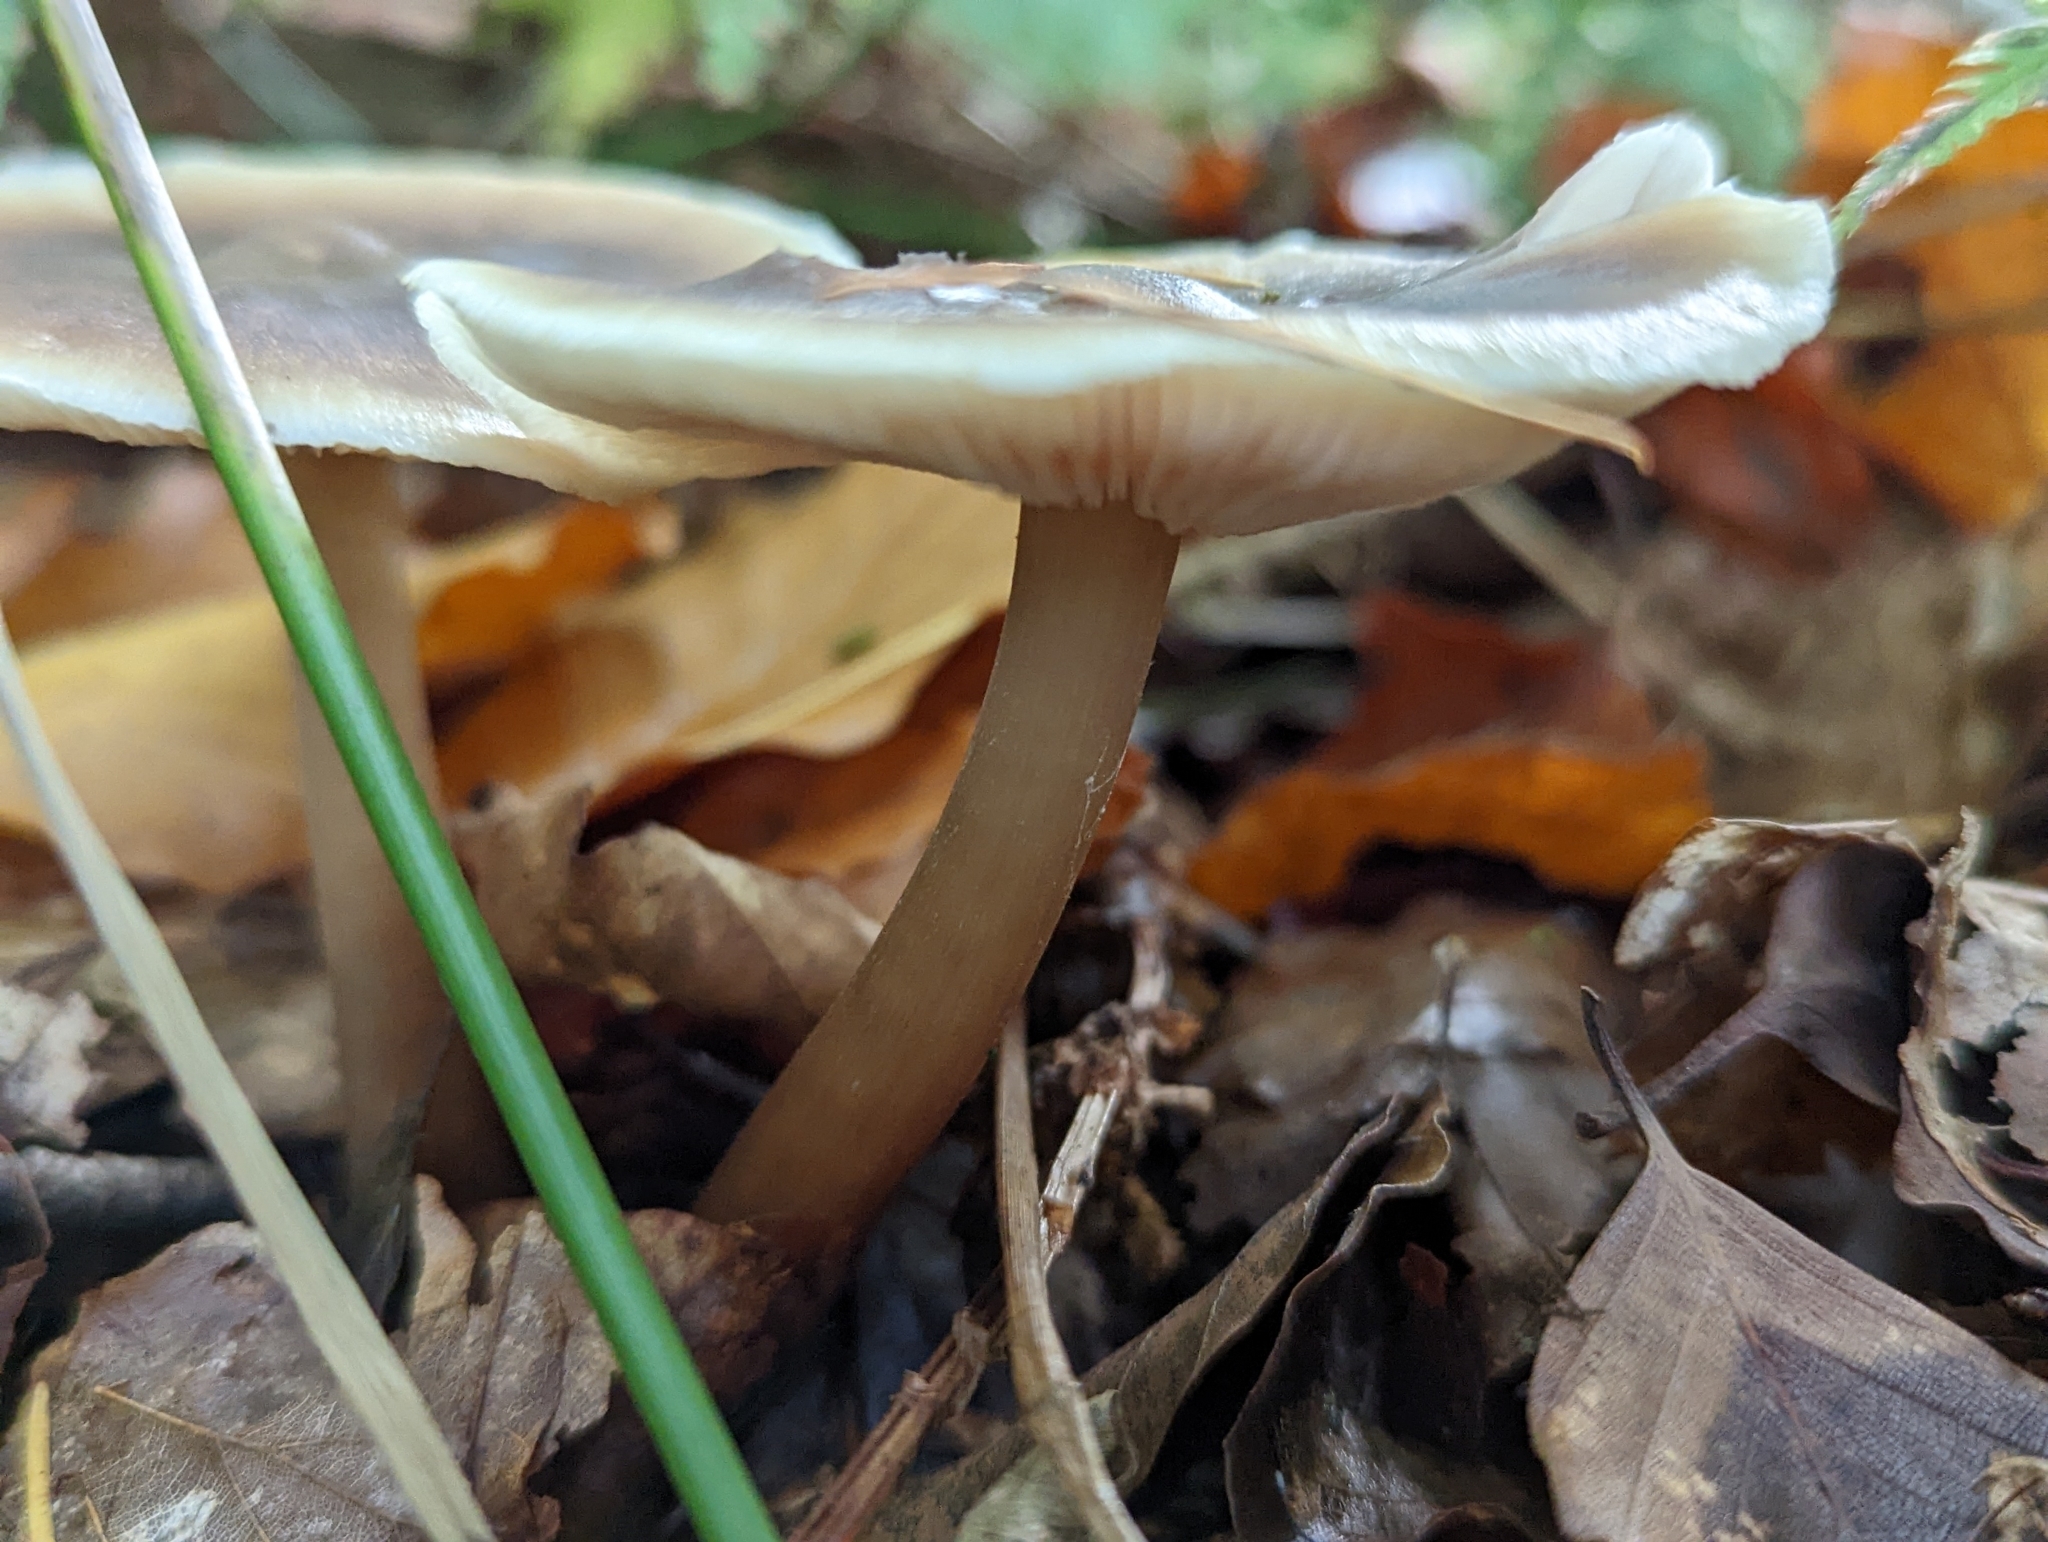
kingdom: Fungi
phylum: Basidiomycota
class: Agaricomycetes
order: Agaricales
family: Omphalotaceae
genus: Rhodocollybia
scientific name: Rhodocollybia butyracea
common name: Butter cap
